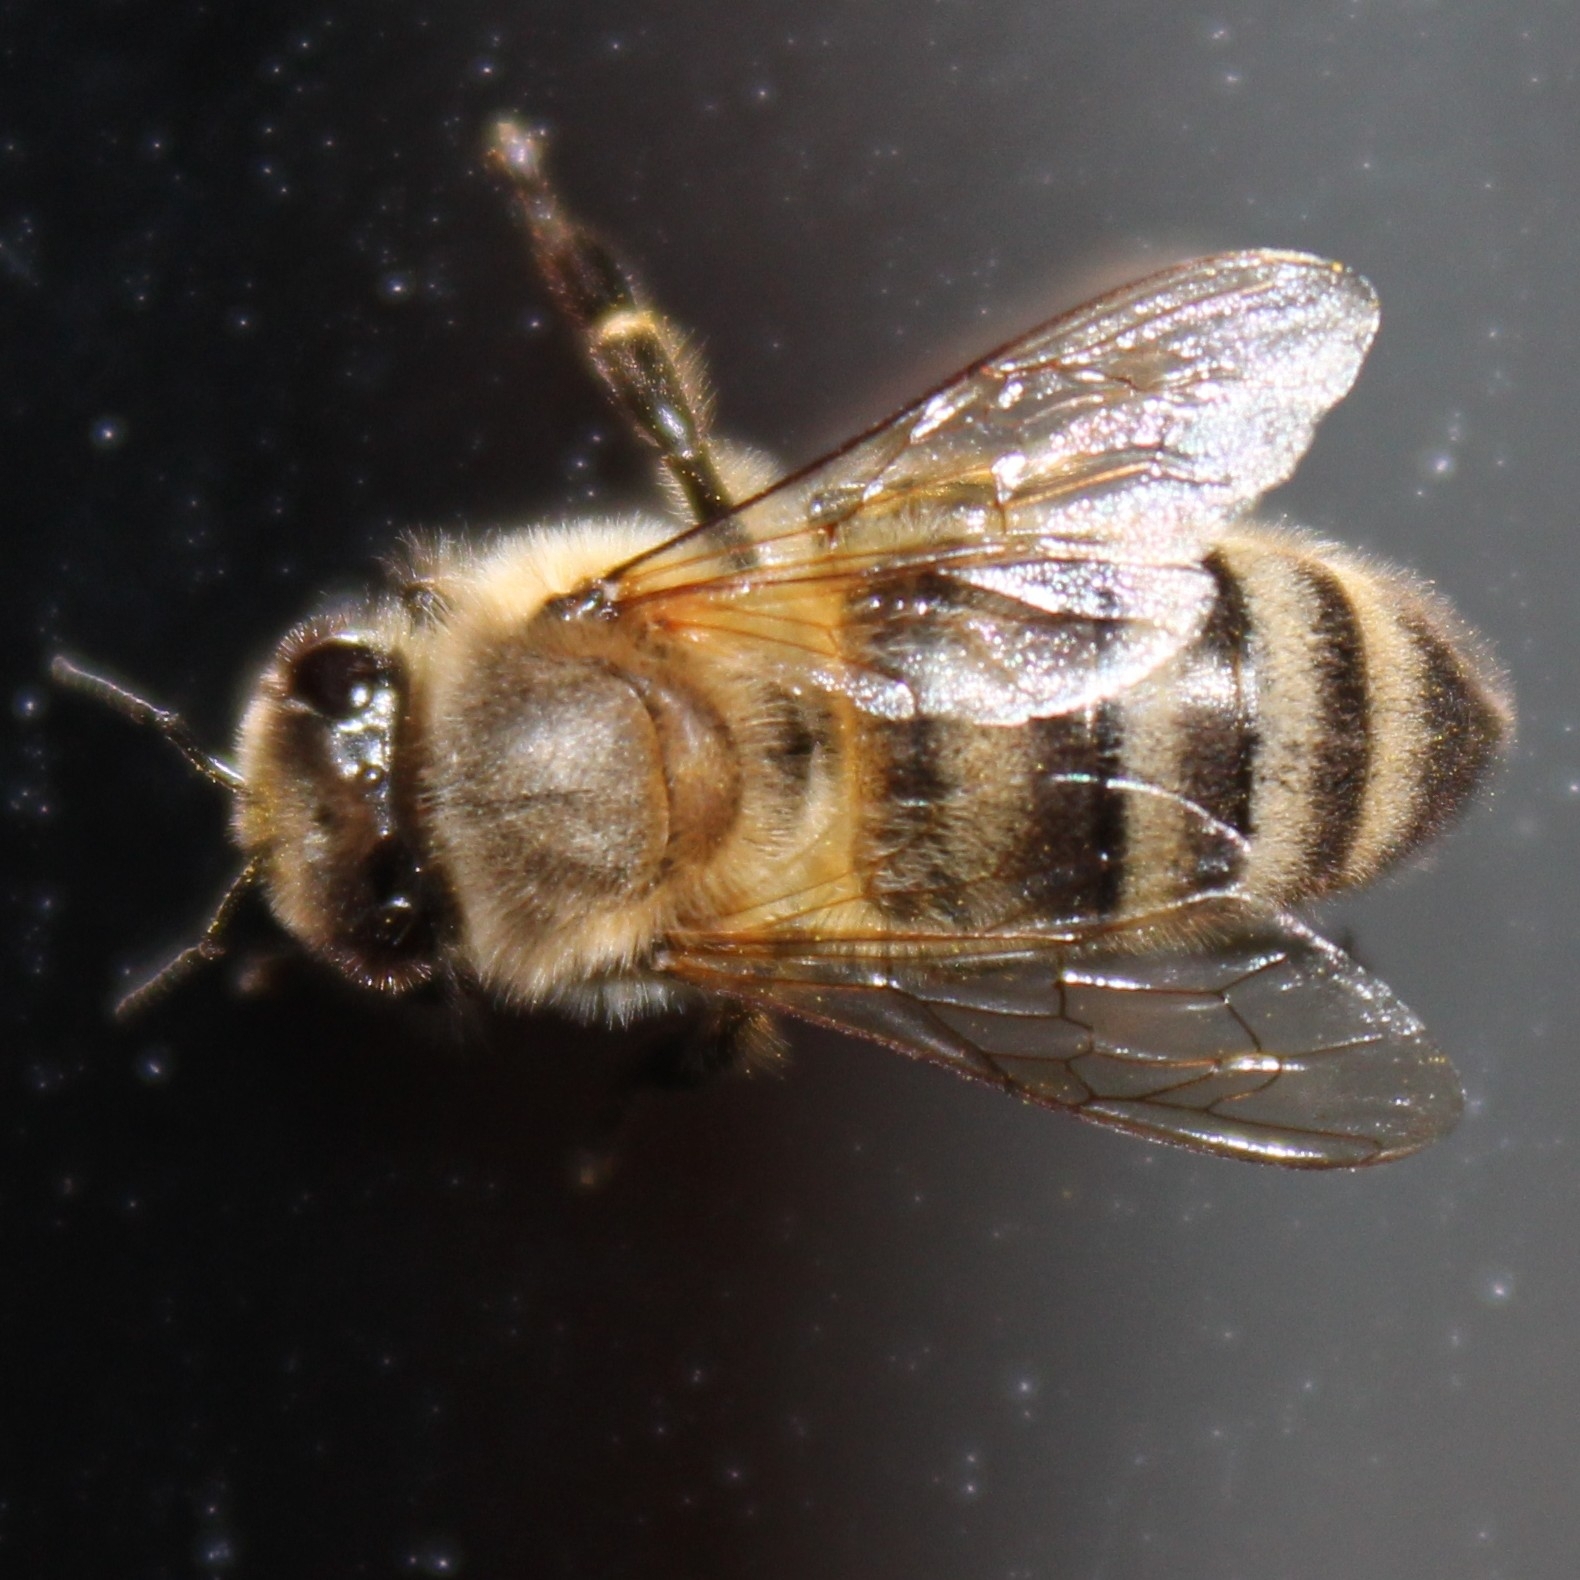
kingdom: Animalia
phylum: Arthropoda
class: Insecta
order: Hymenoptera
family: Apidae
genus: Apis
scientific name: Apis mellifera
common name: Honey bee
